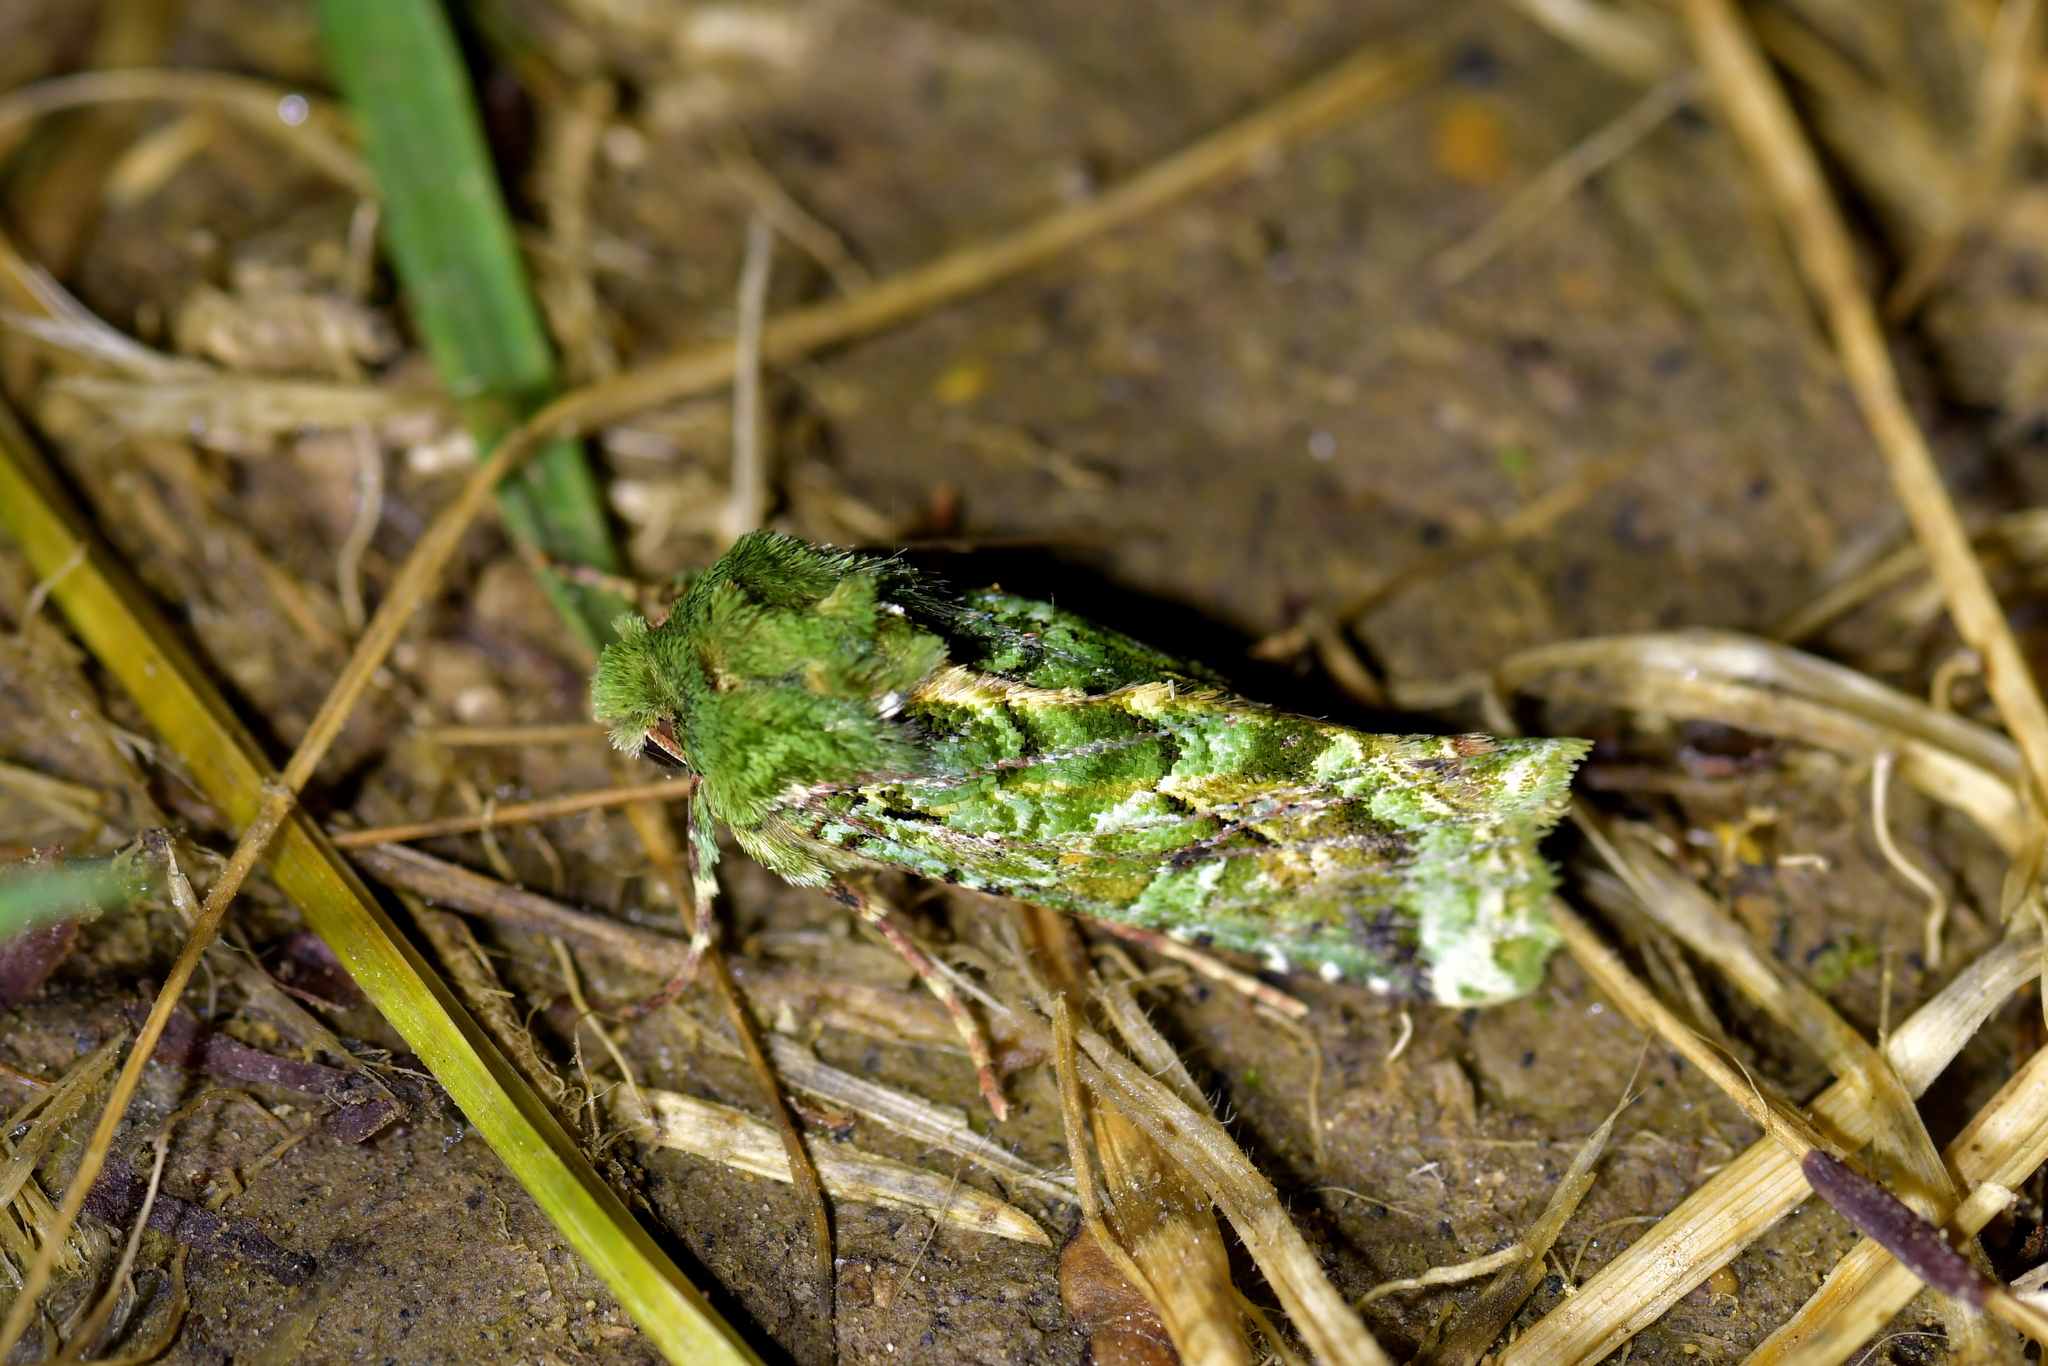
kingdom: Animalia
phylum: Arthropoda
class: Insecta
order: Lepidoptera
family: Noctuidae
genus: Feredayia
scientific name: Feredayia grammosa
